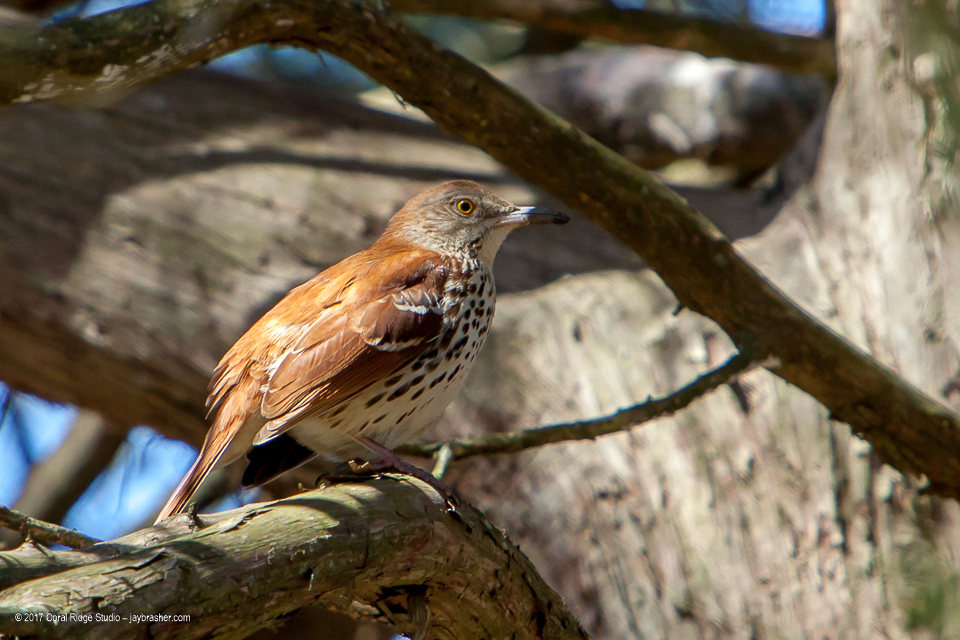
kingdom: Animalia
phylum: Chordata
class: Aves
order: Passeriformes
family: Mimidae
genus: Toxostoma
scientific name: Toxostoma rufum
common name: Brown thrasher
